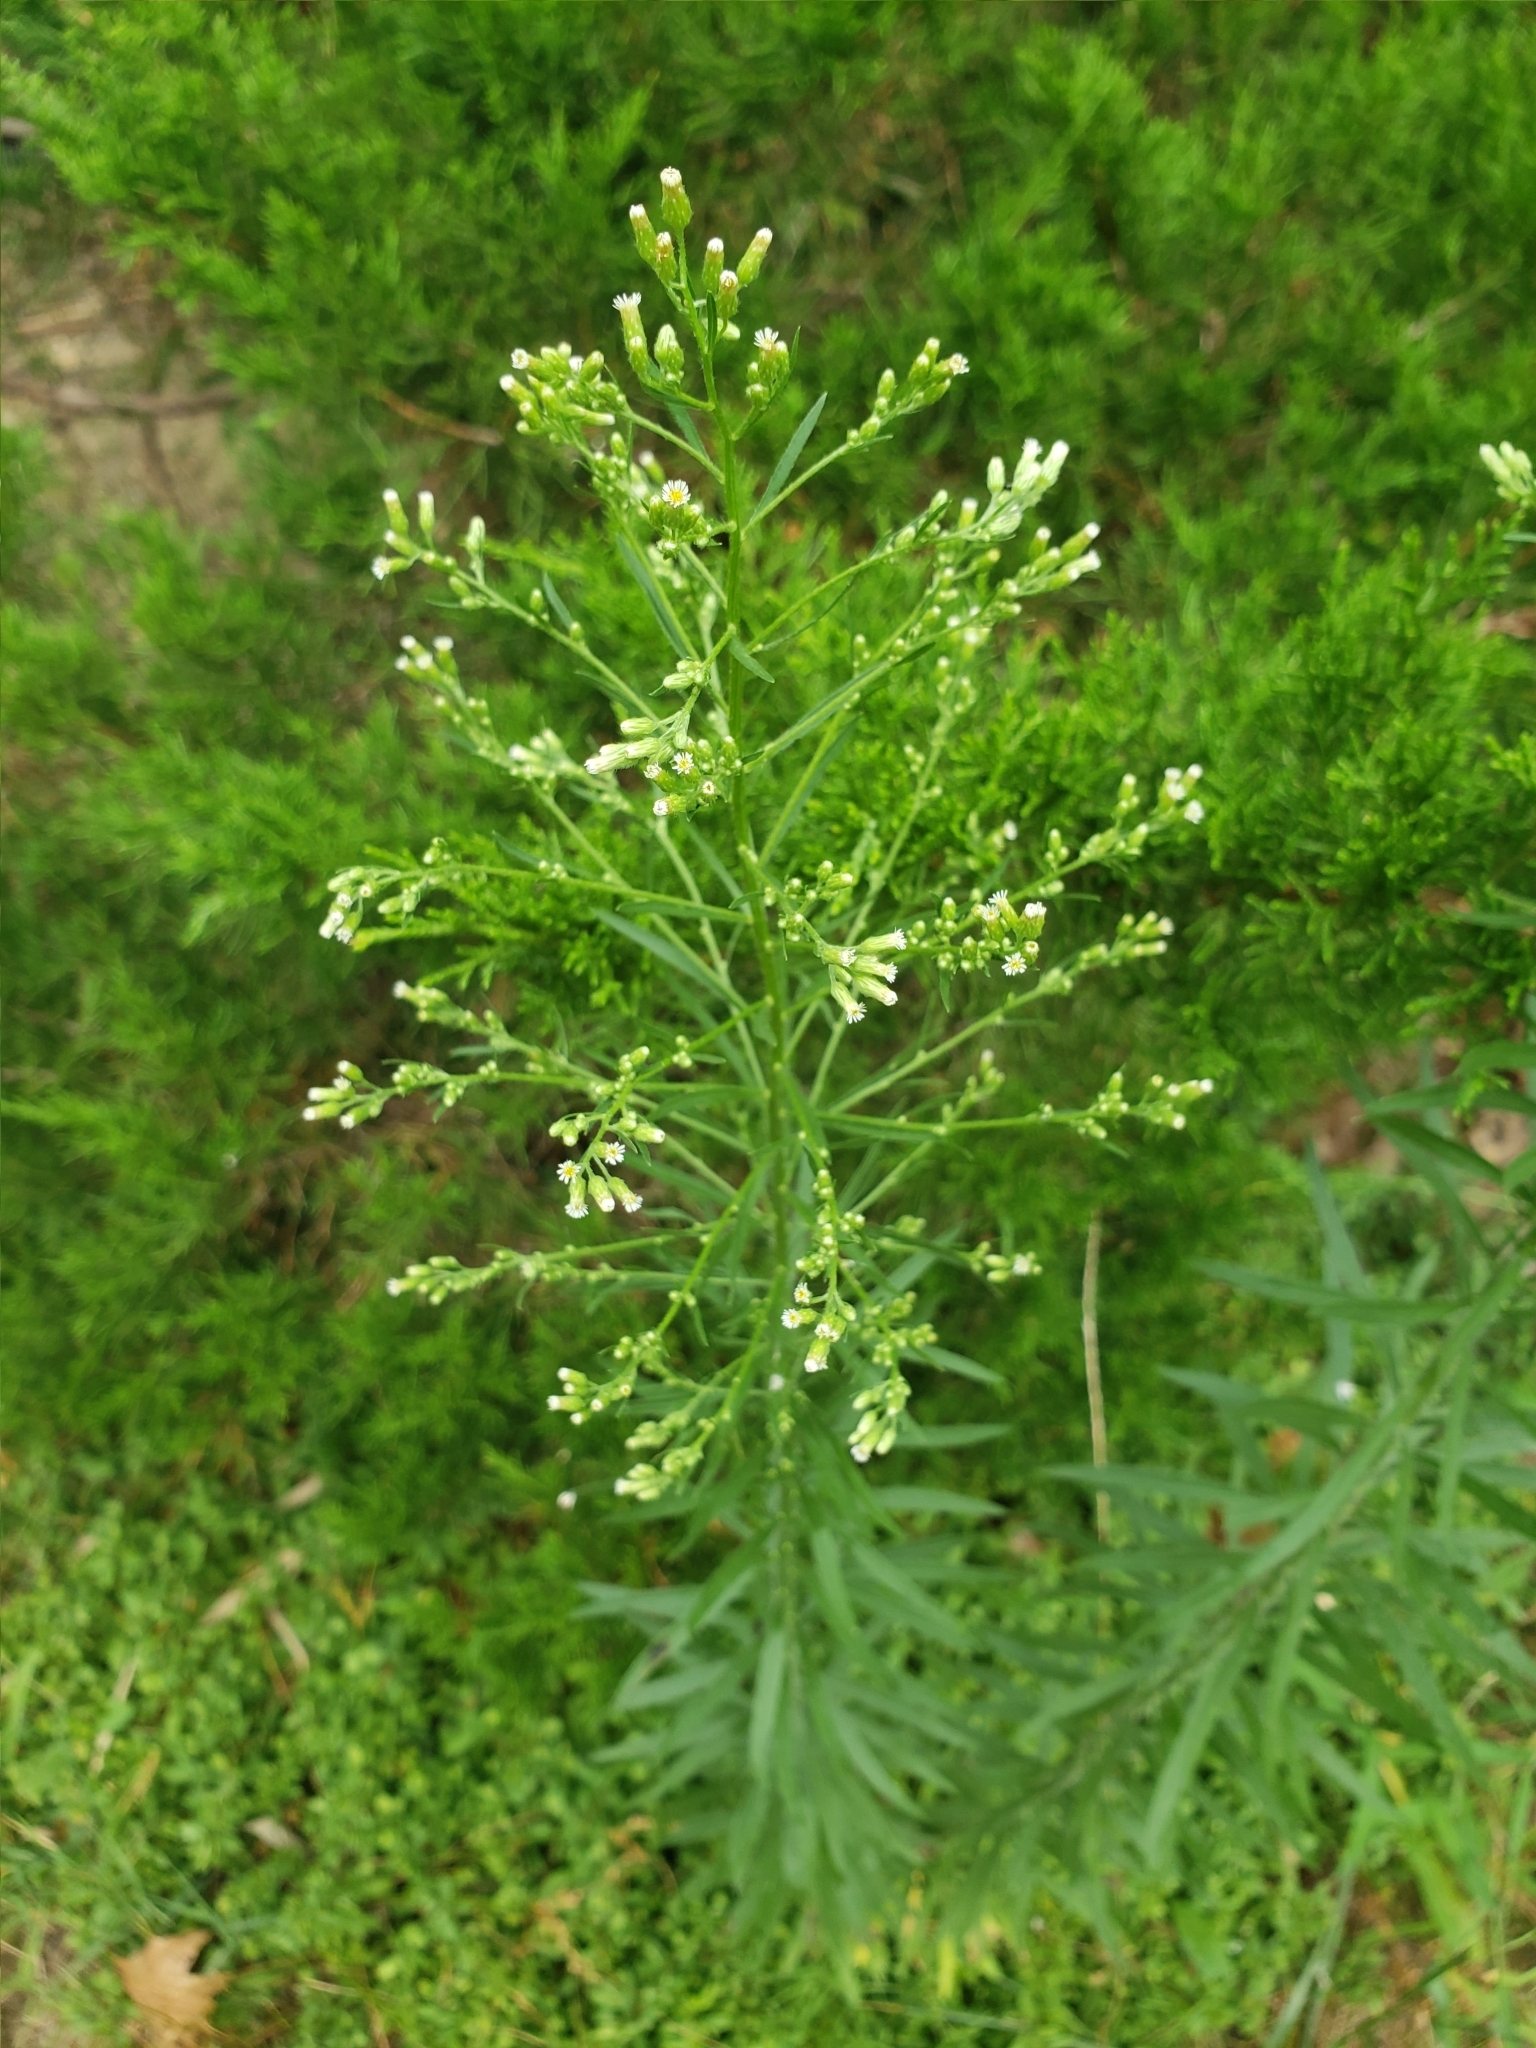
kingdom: Plantae
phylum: Tracheophyta
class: Magnoliopsida
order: Asterales
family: Asteraceae
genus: Erigeron
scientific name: Erigeron canadensis
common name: Canadian fleabane
